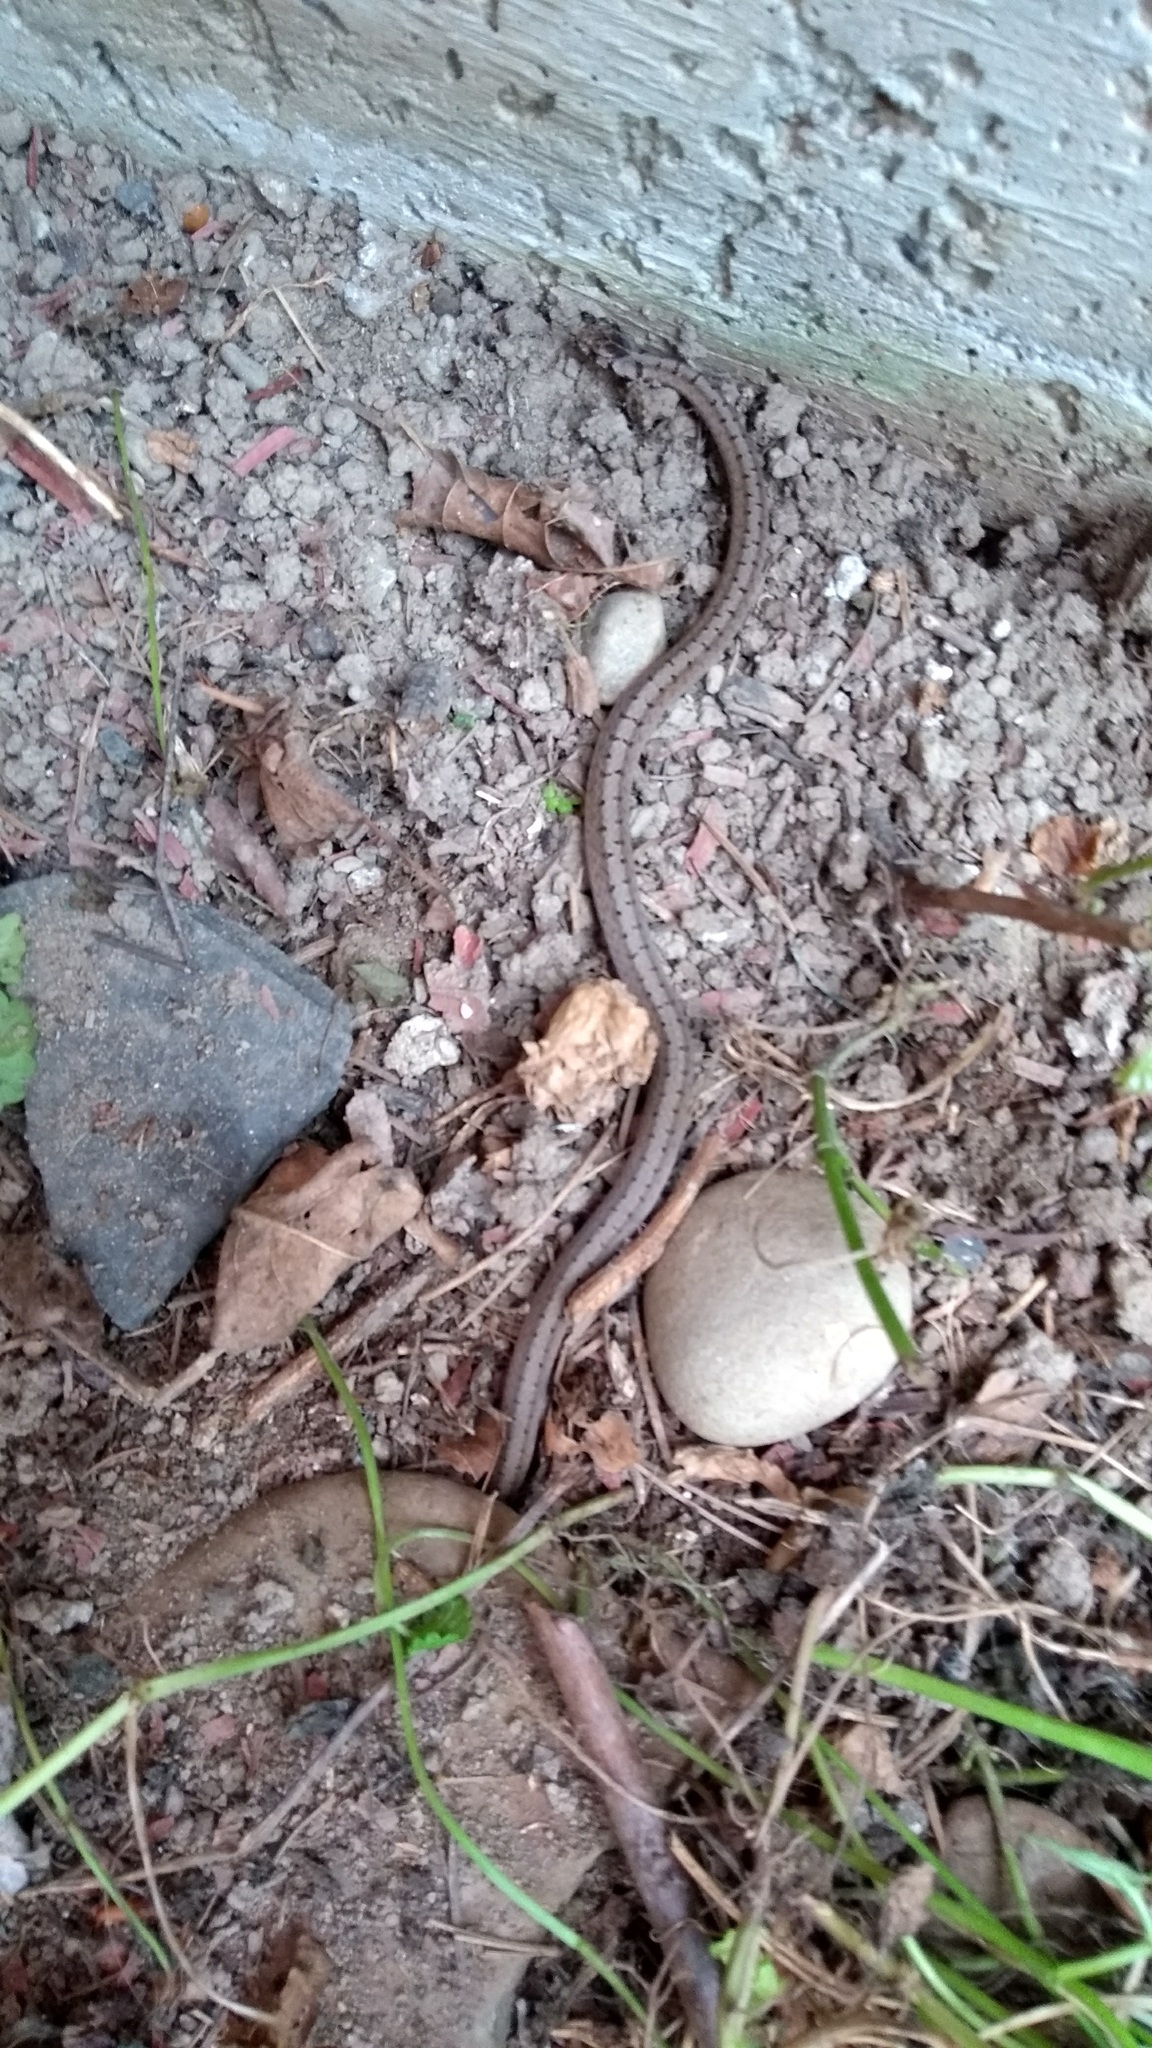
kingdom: Animalia
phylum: Chordata
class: Squamata
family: Colubridae
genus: Storeria
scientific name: Storeria dekayi
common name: (dekay’s) brown snake
